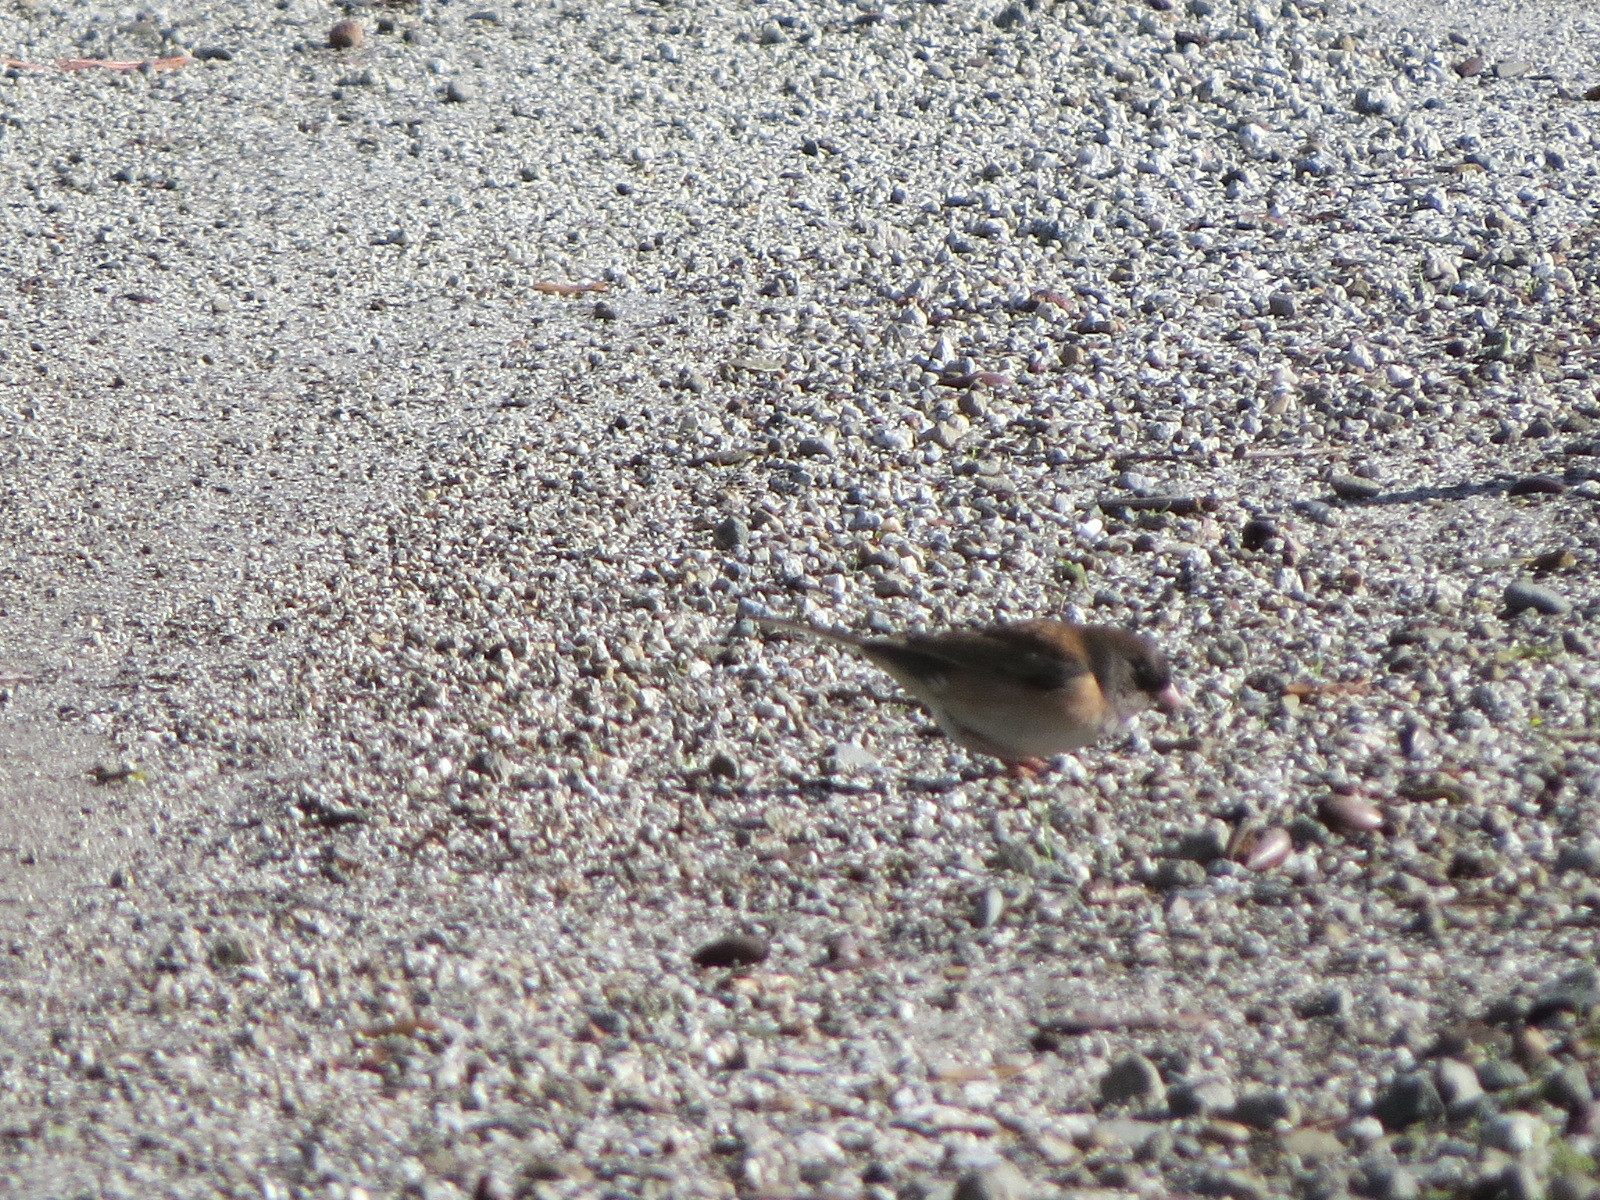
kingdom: Animalia
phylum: Chordata
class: Aves
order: Passeriformes
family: Passerellidae
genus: Junco
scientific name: Junco hyemalis
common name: Dark-eyed junco
